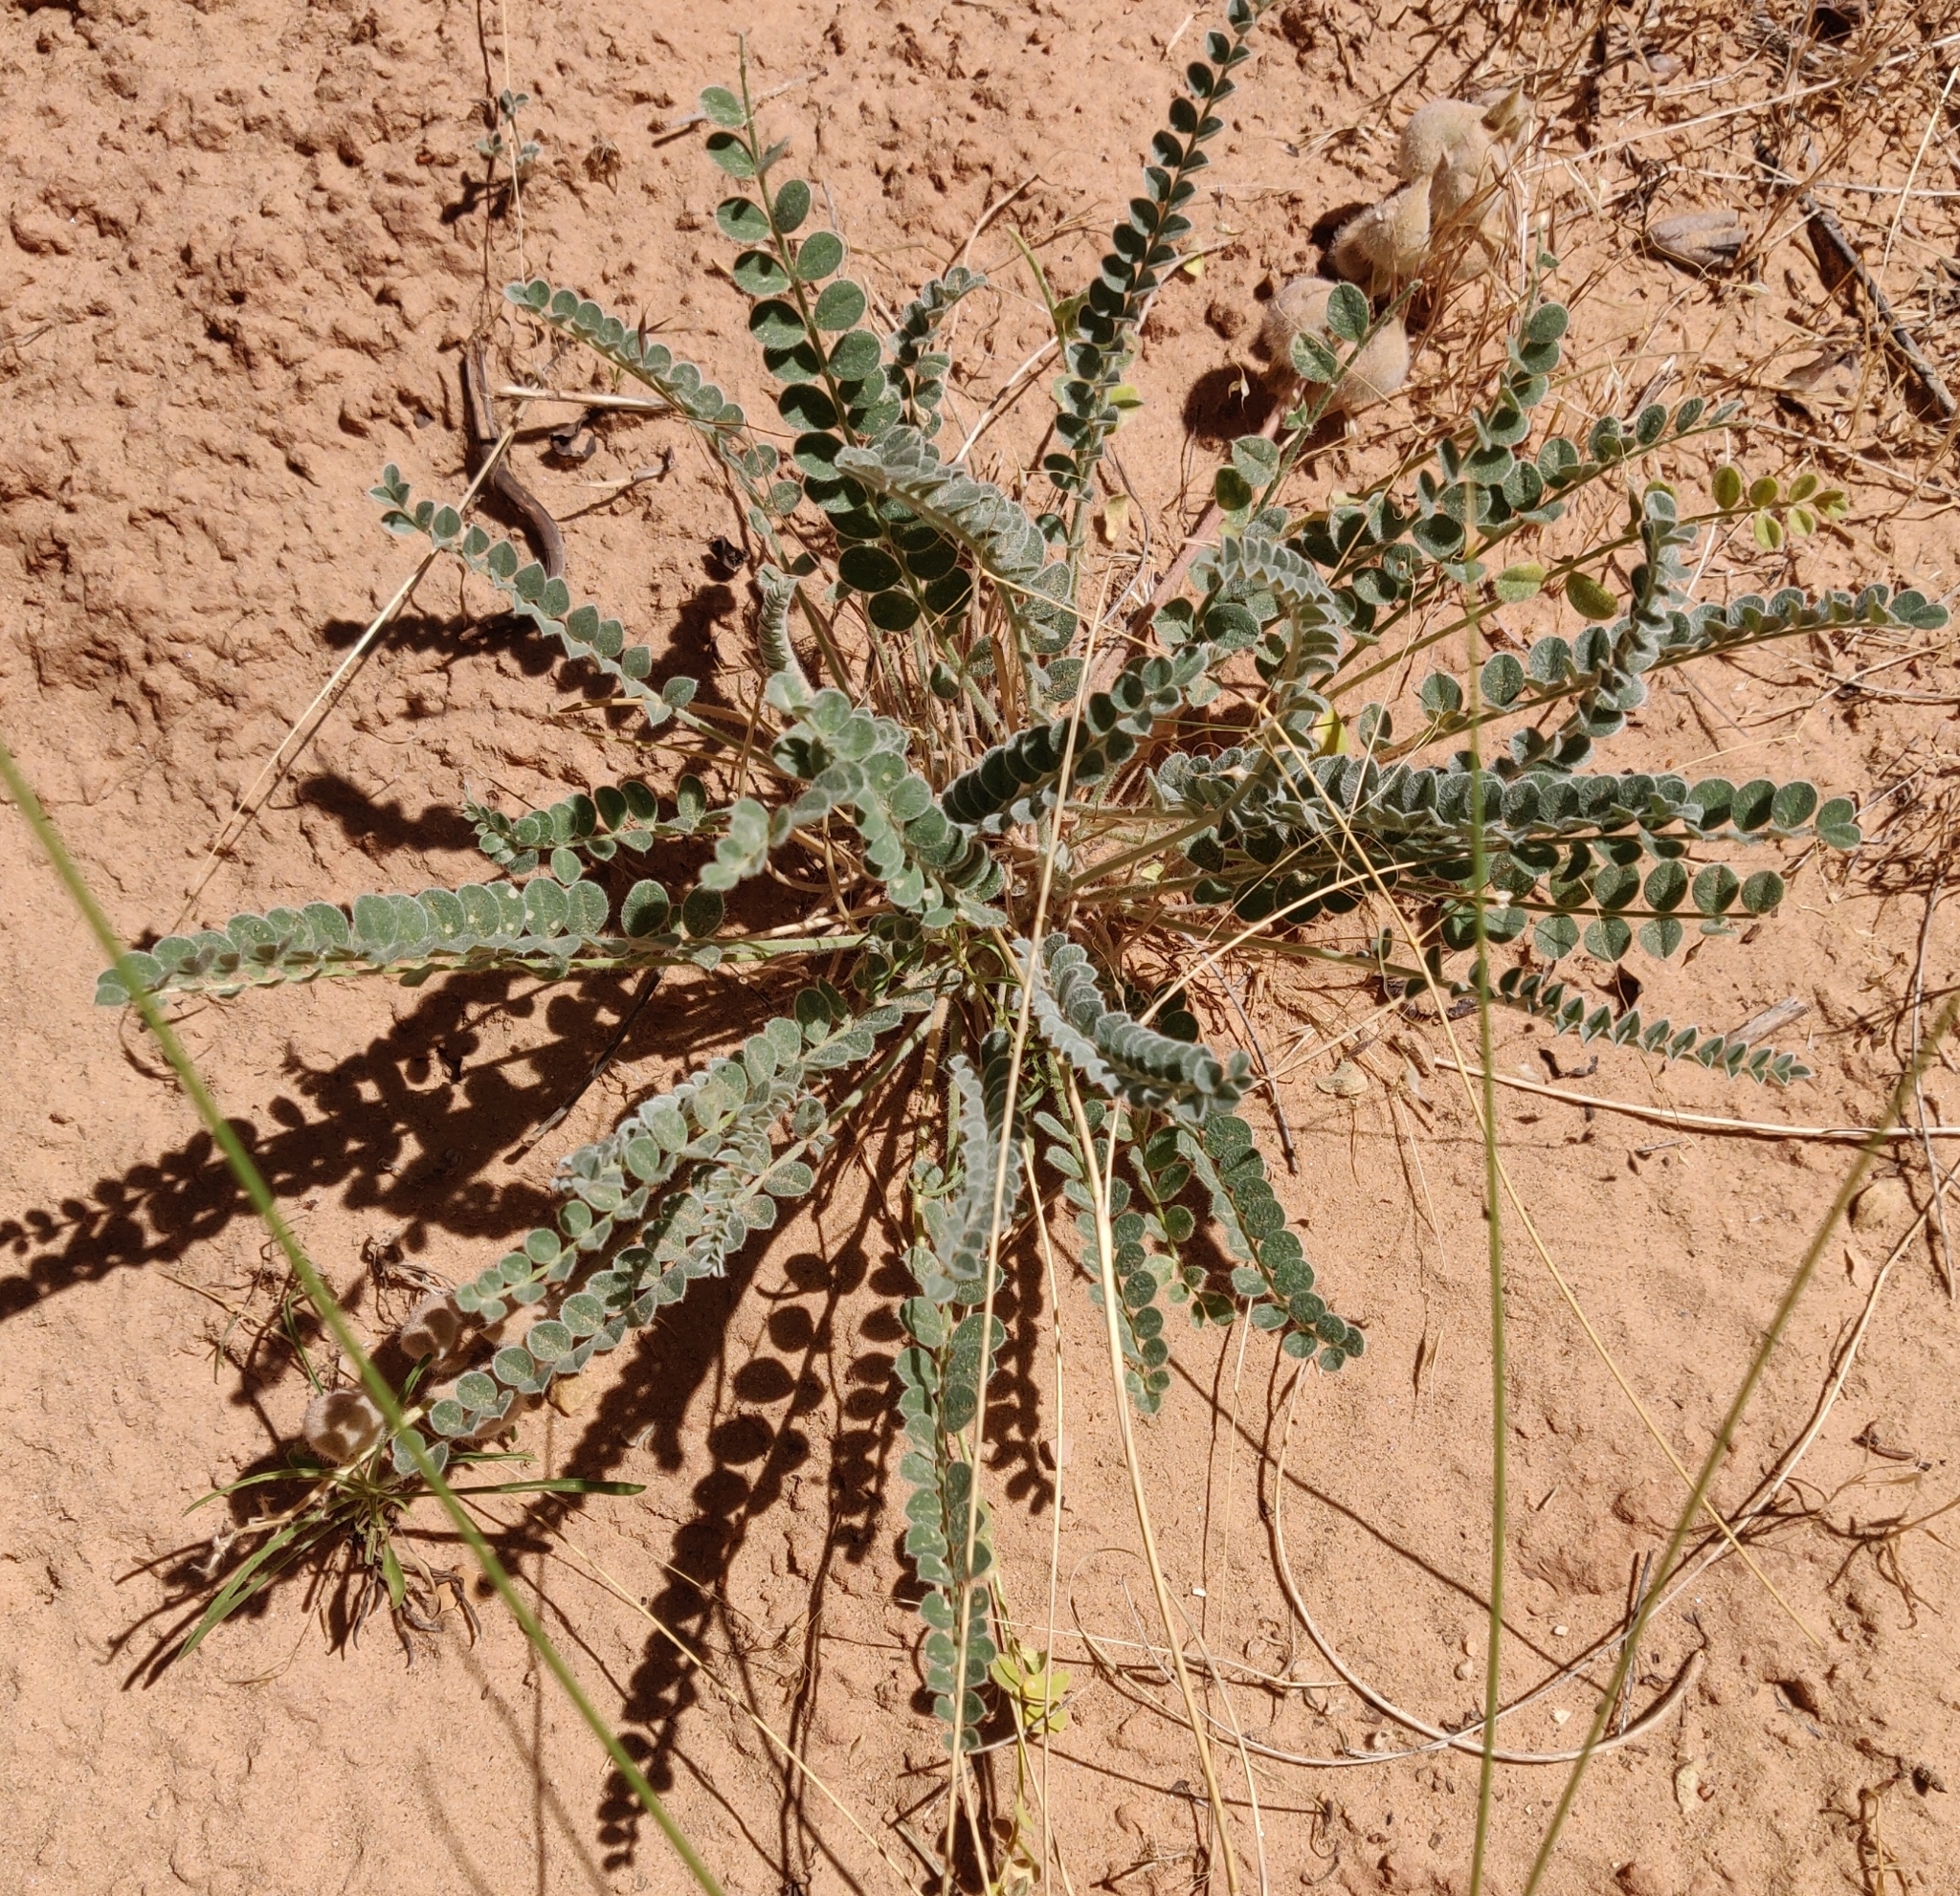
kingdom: Plantae
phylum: Tracheophyta
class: Magnoliopsida
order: Fabales
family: Fabaceae
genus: Astragalus
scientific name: Astragalus mollissimus
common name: Woolly locoweed
